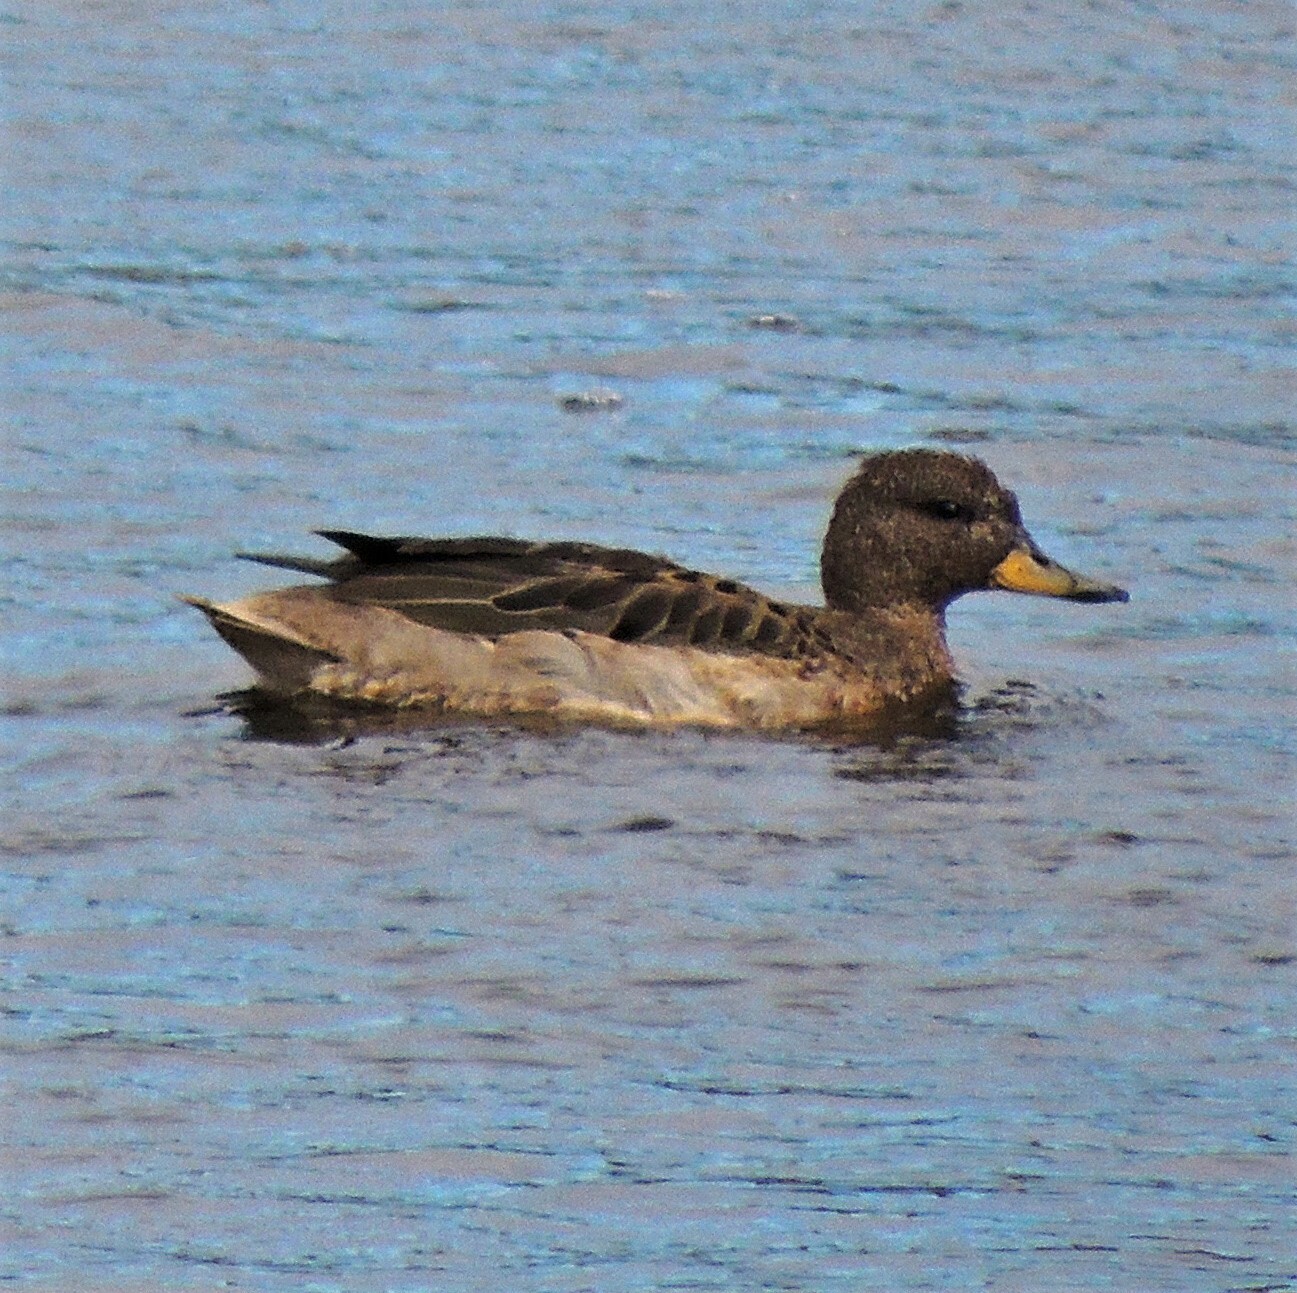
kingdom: Animalia
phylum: Chordata
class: Aves
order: Anseriformes
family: Anatidae
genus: Anas
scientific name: Anas flavirostris
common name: Yellow-billed teal
